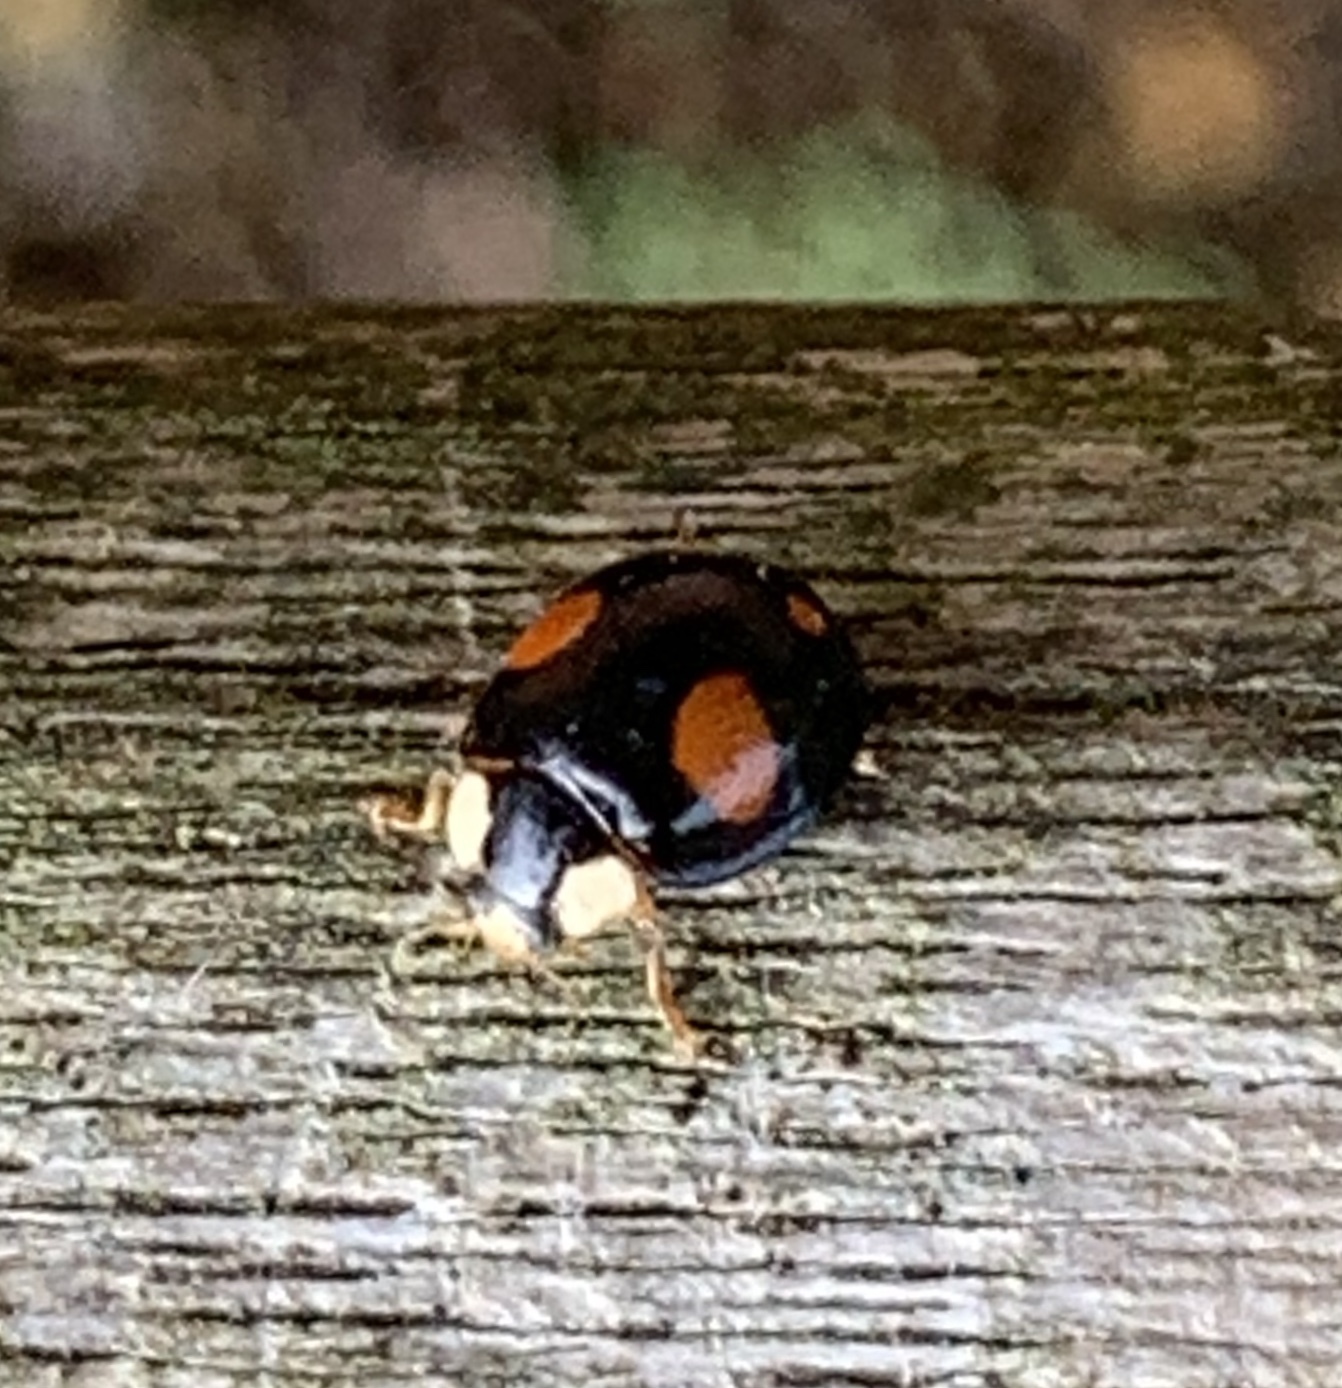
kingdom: Animalia
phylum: Arthropoda
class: Insecta
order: Coleoptera
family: Coccinellidae
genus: Harmonia
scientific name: Harmonia axyridis
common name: Harlequin ladybird
